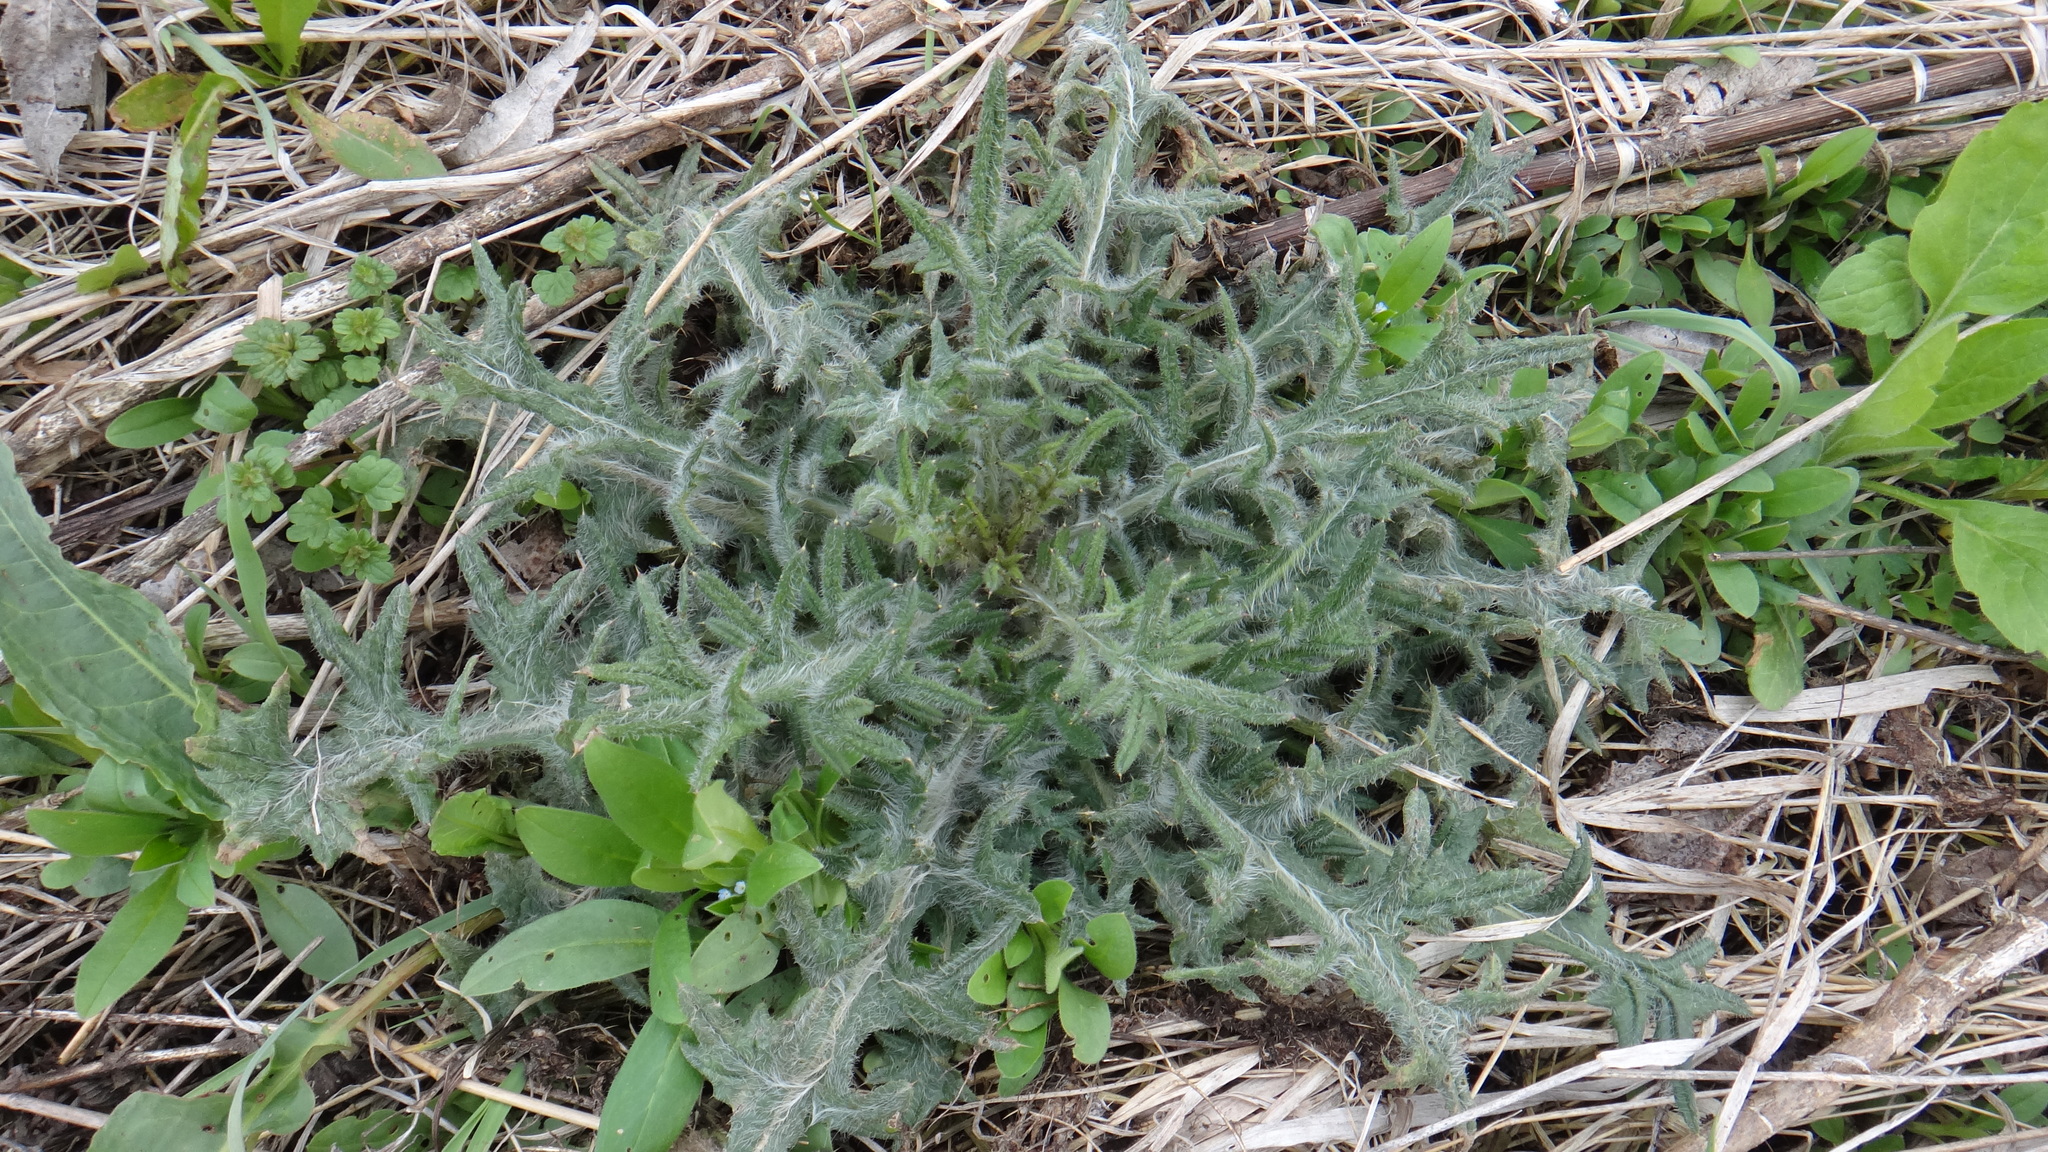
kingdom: Plantae
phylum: Tracheophyta
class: Magnoliopsida
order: Asterales
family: Asteraceae
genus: Cirsium
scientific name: Cirsium vulgare
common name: Bull thistle
